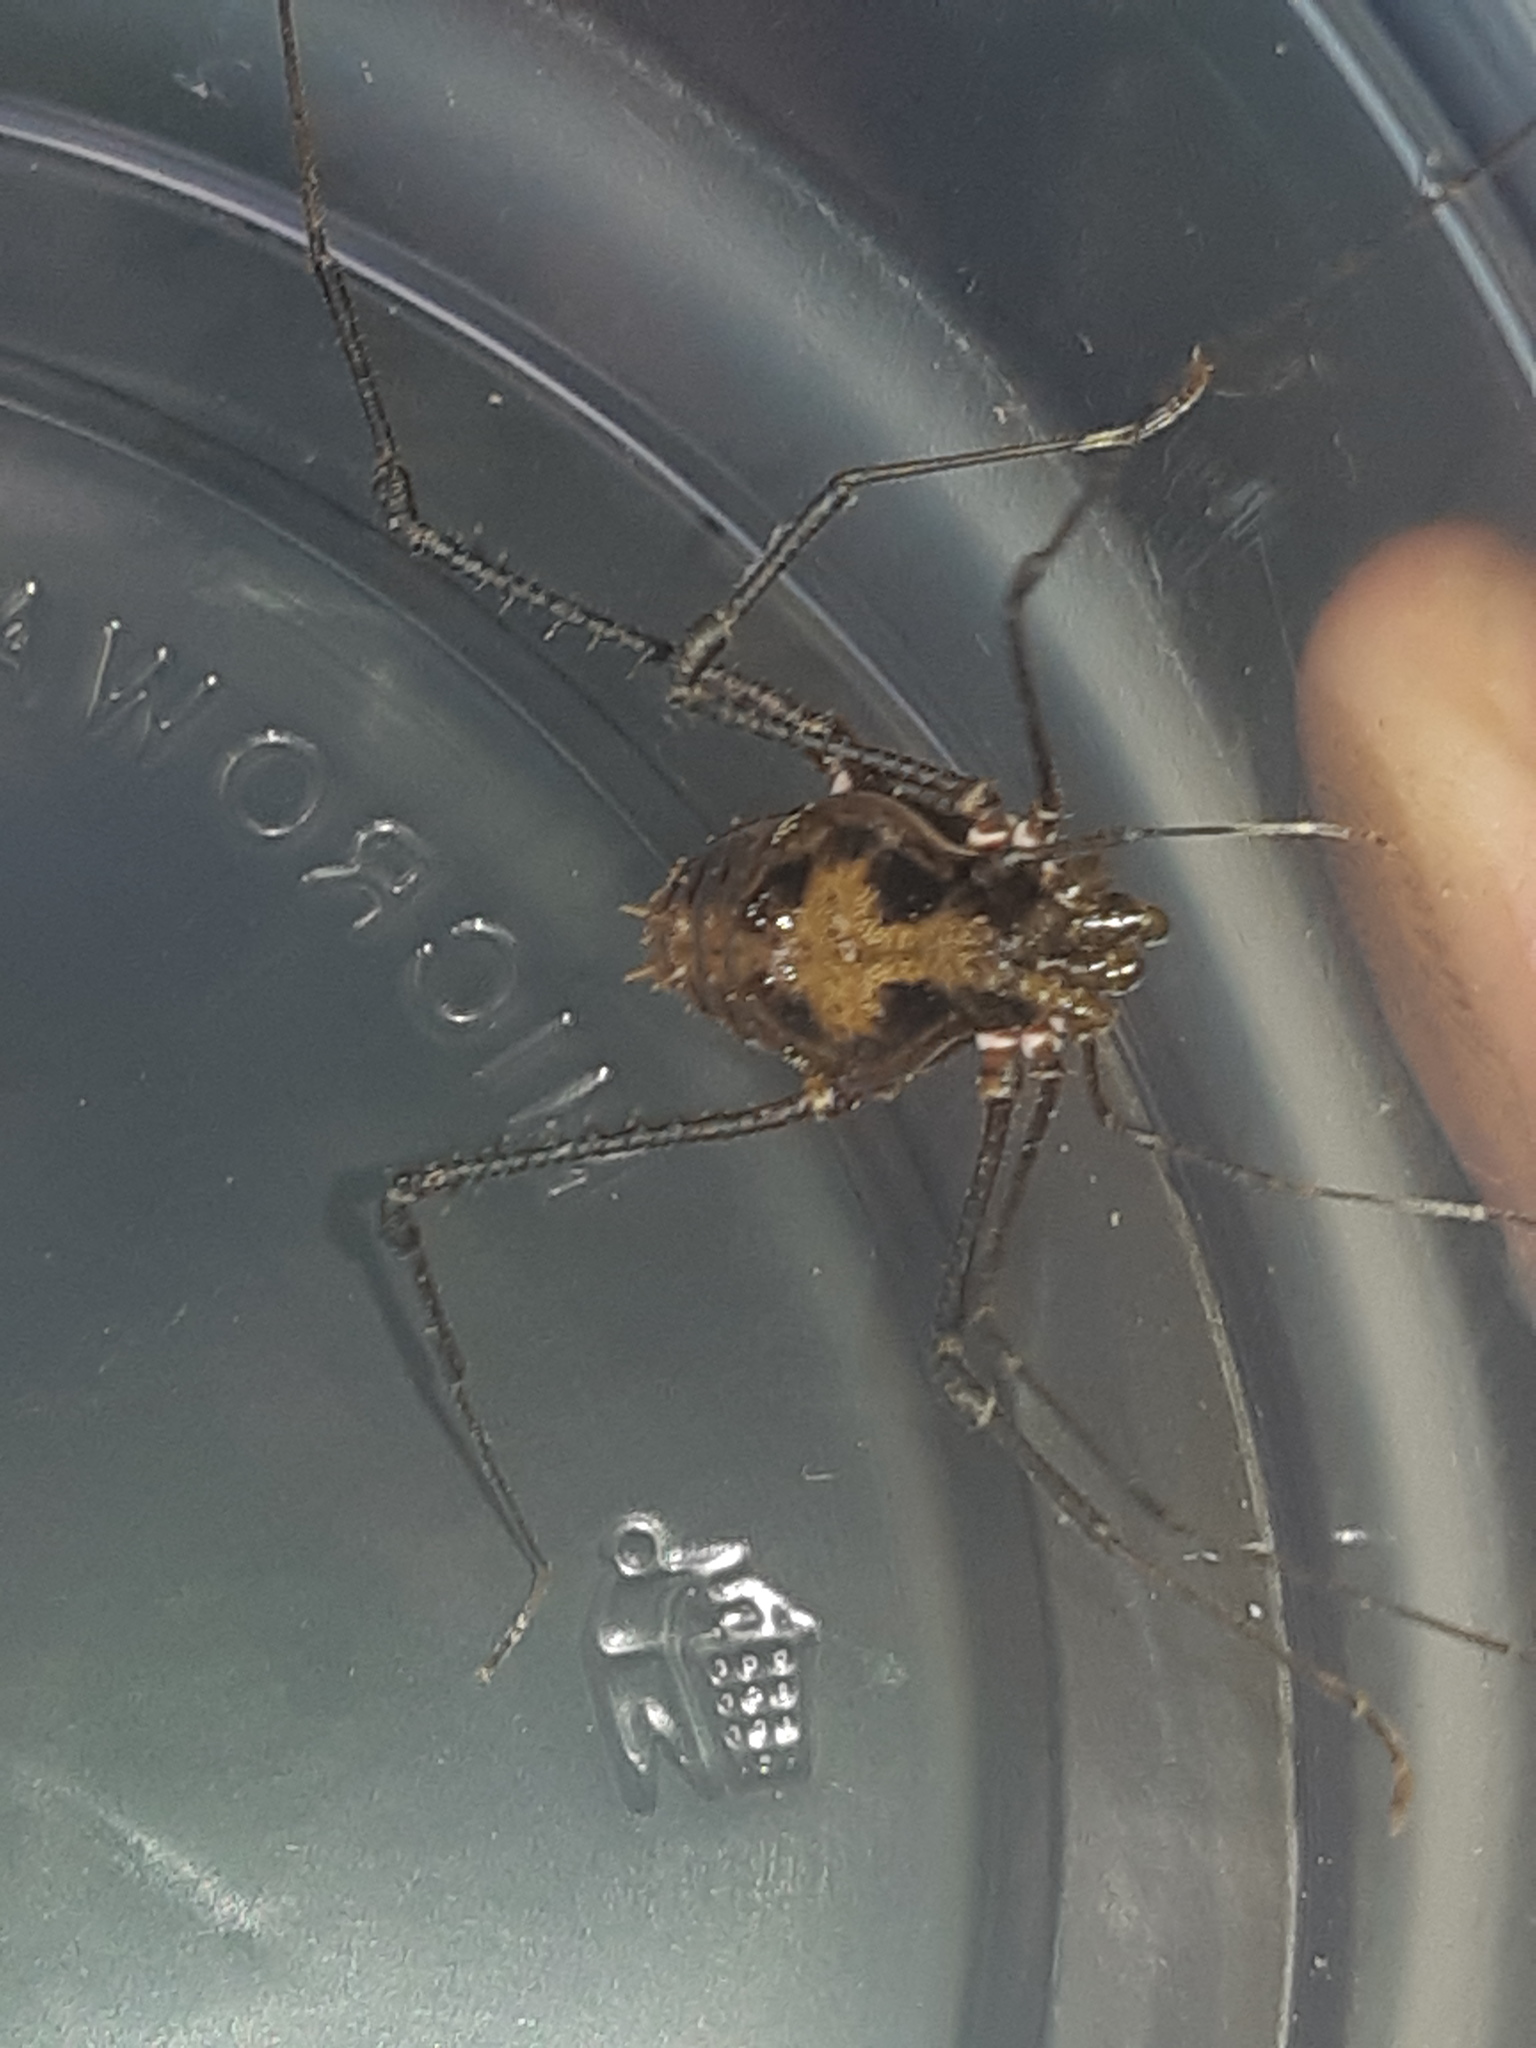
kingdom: Animalia
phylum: Arthropoda
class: Arachnida
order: Opiliones
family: Cranaidae
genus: Nieblia
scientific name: Nieblia arthrocentrica
